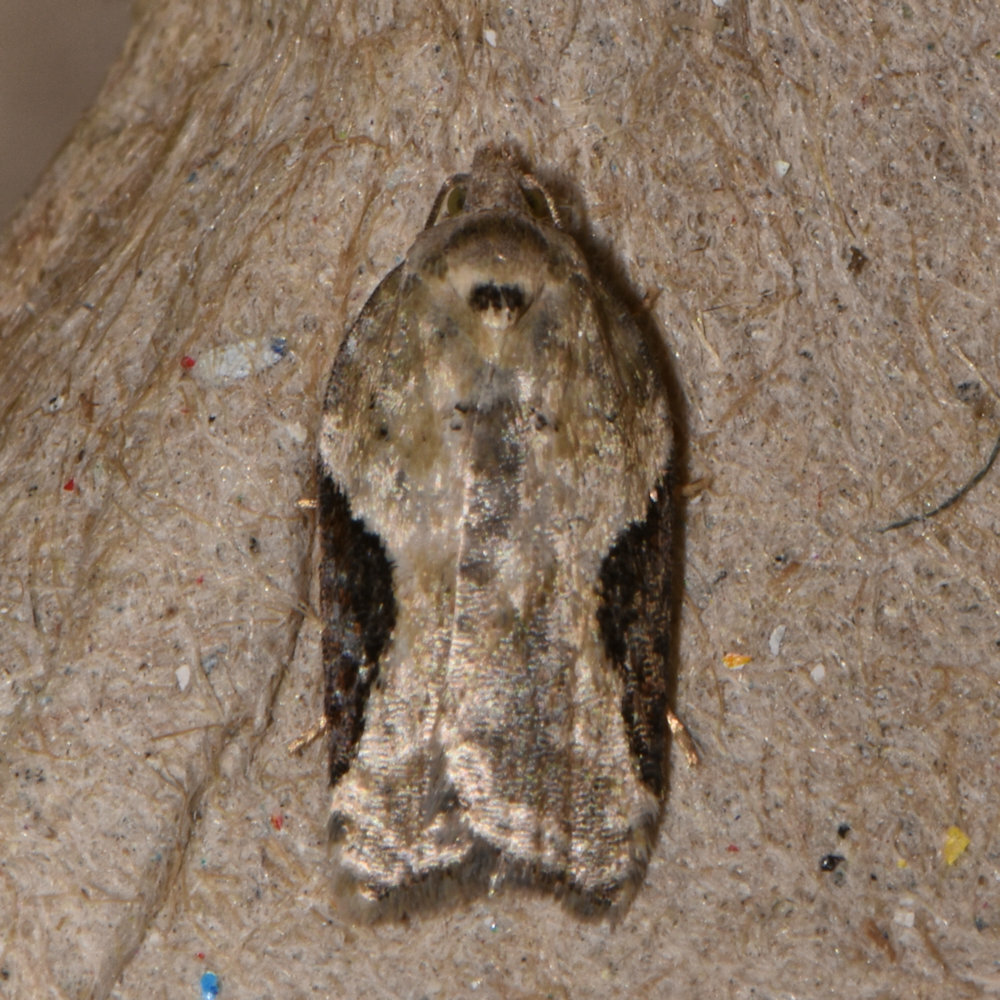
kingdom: Animalia
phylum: Arthropoda
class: Insecta
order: Lepidoptera
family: Tortricidae
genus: Acleris
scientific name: Acleris forbesana
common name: Forbes' acleris moth
